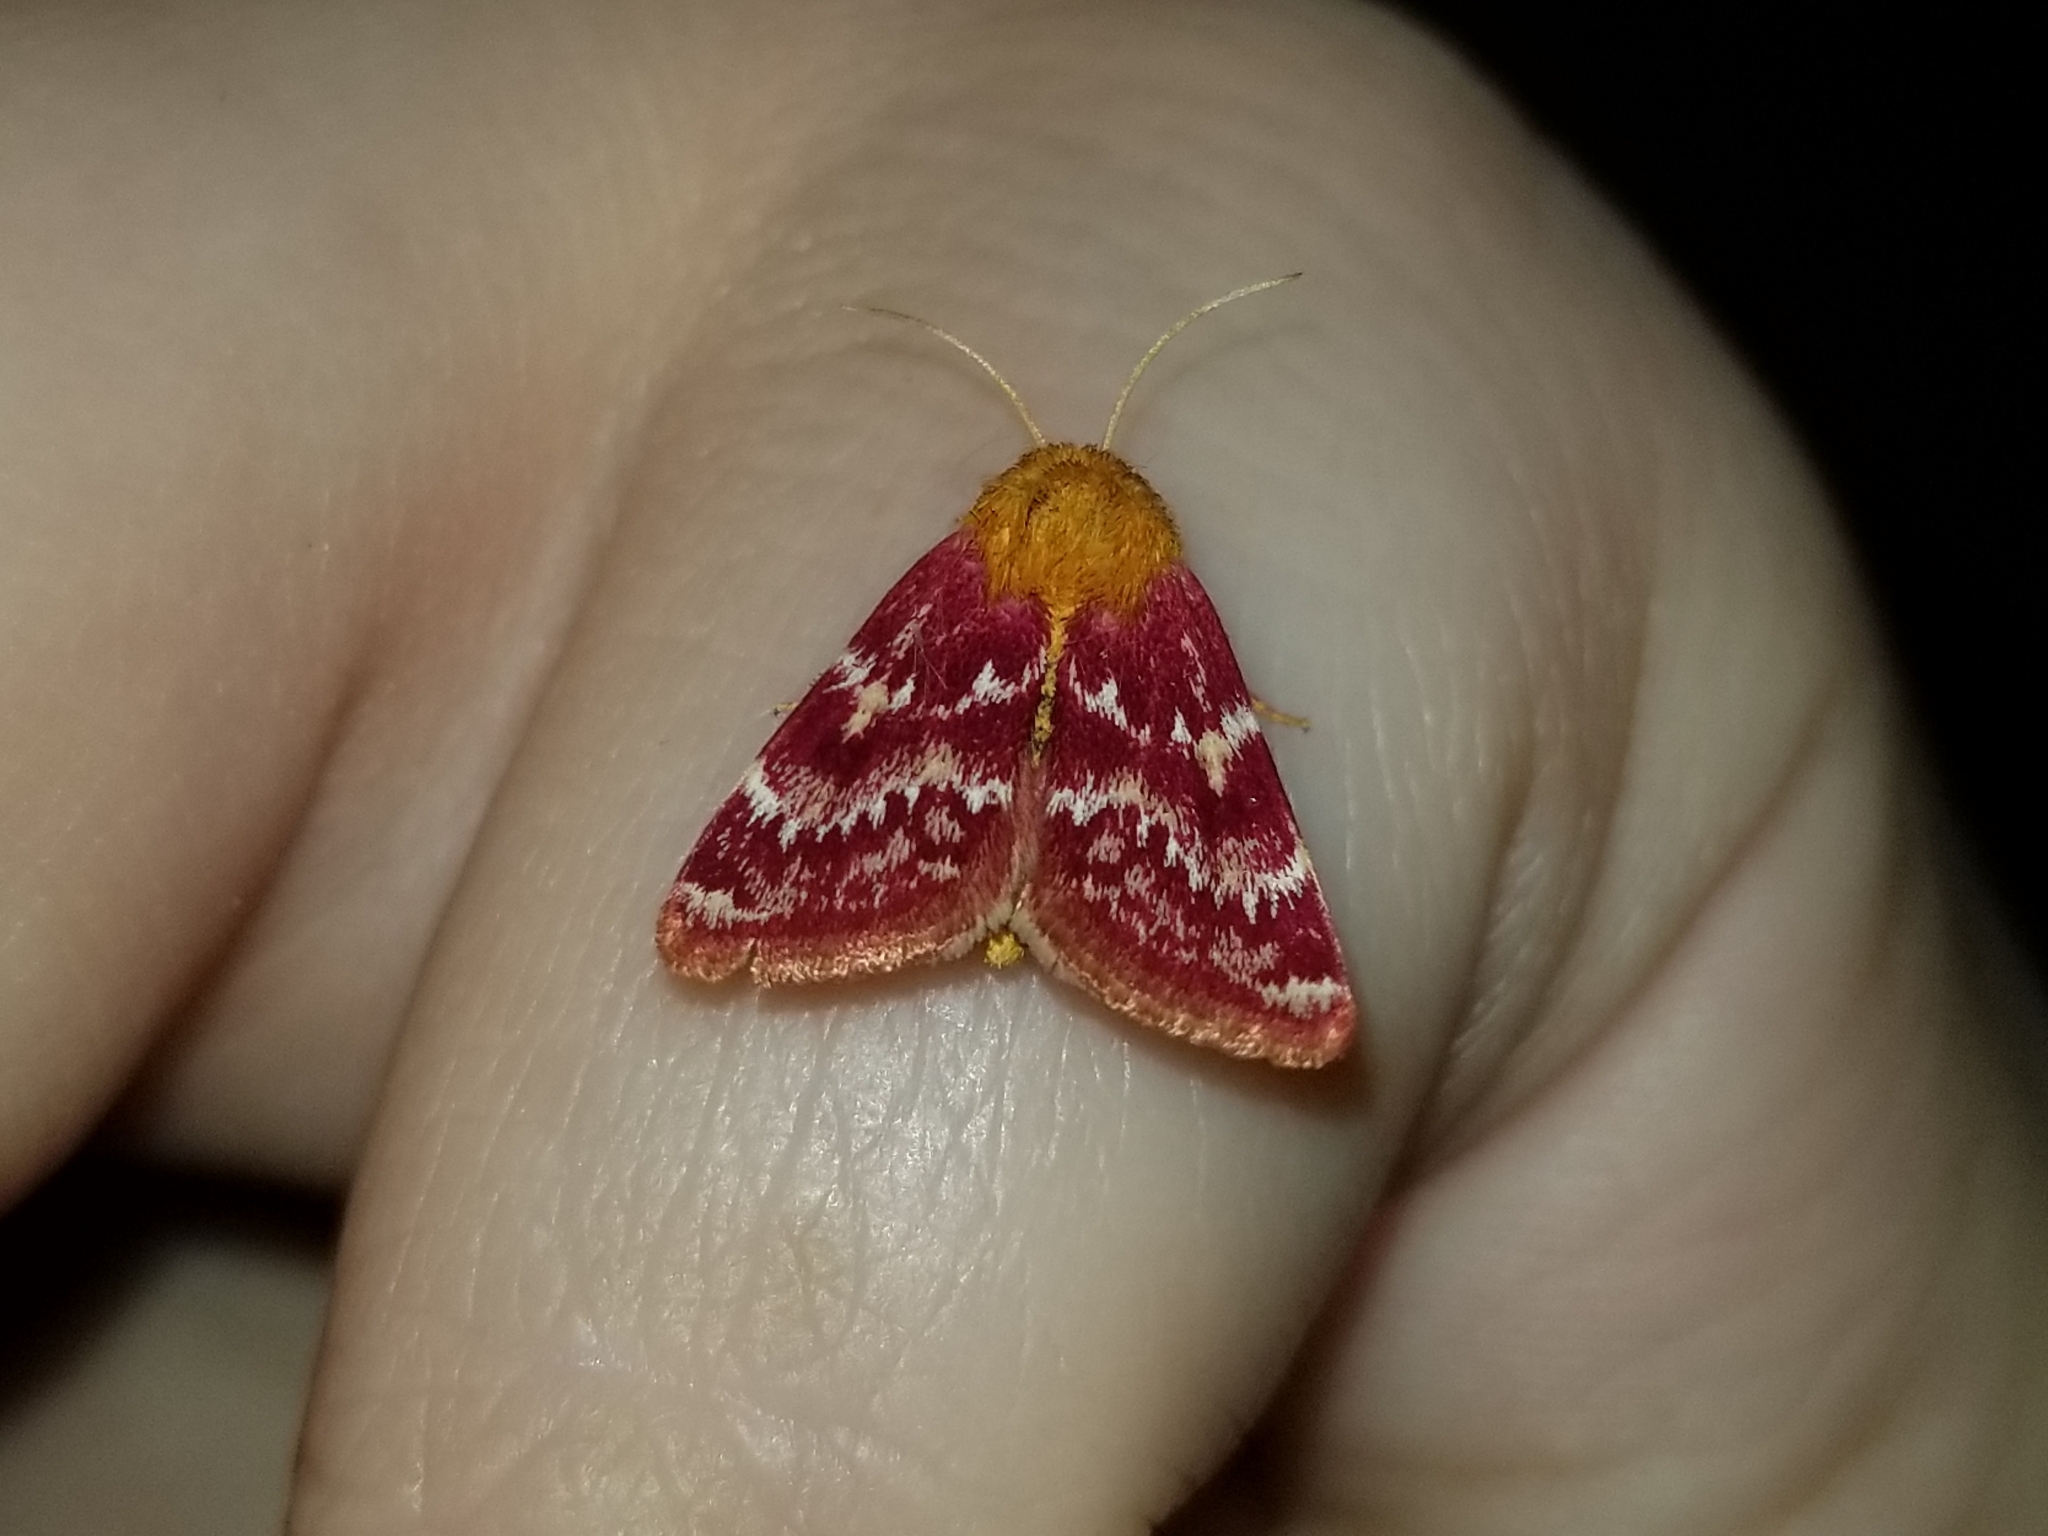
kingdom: Animalia
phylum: Arthropoda
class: Insecta
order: Lepidoptera
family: Noctuidae
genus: Schinia
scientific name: Schinia volupia
